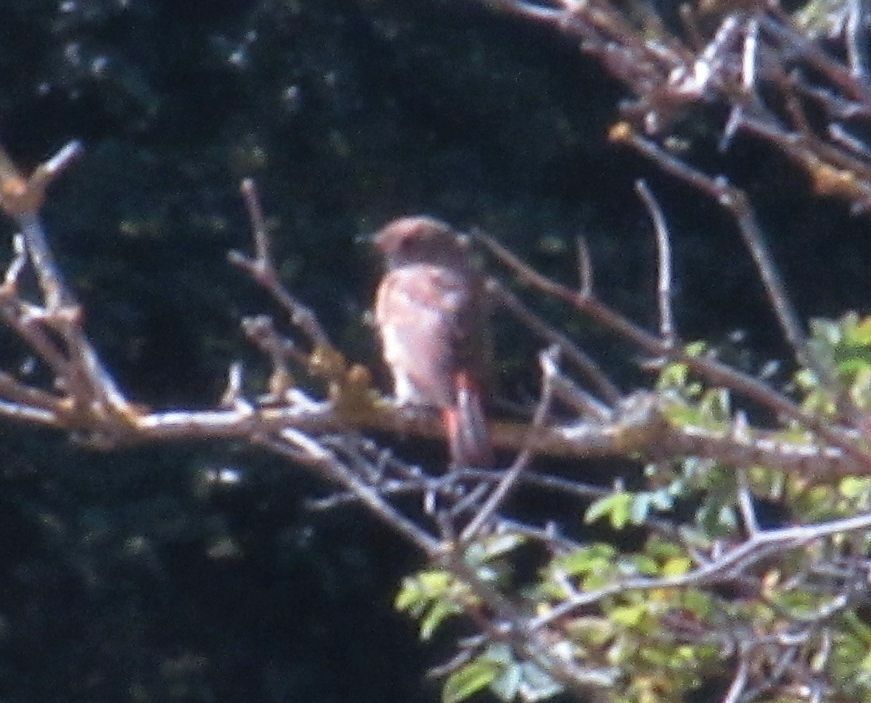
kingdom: Animalia
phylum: Chordata
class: Aves
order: Passeriformes
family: Muscicapidae
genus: Phoenicurus
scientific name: Phoenicurus phoenicurus
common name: Common redstart
